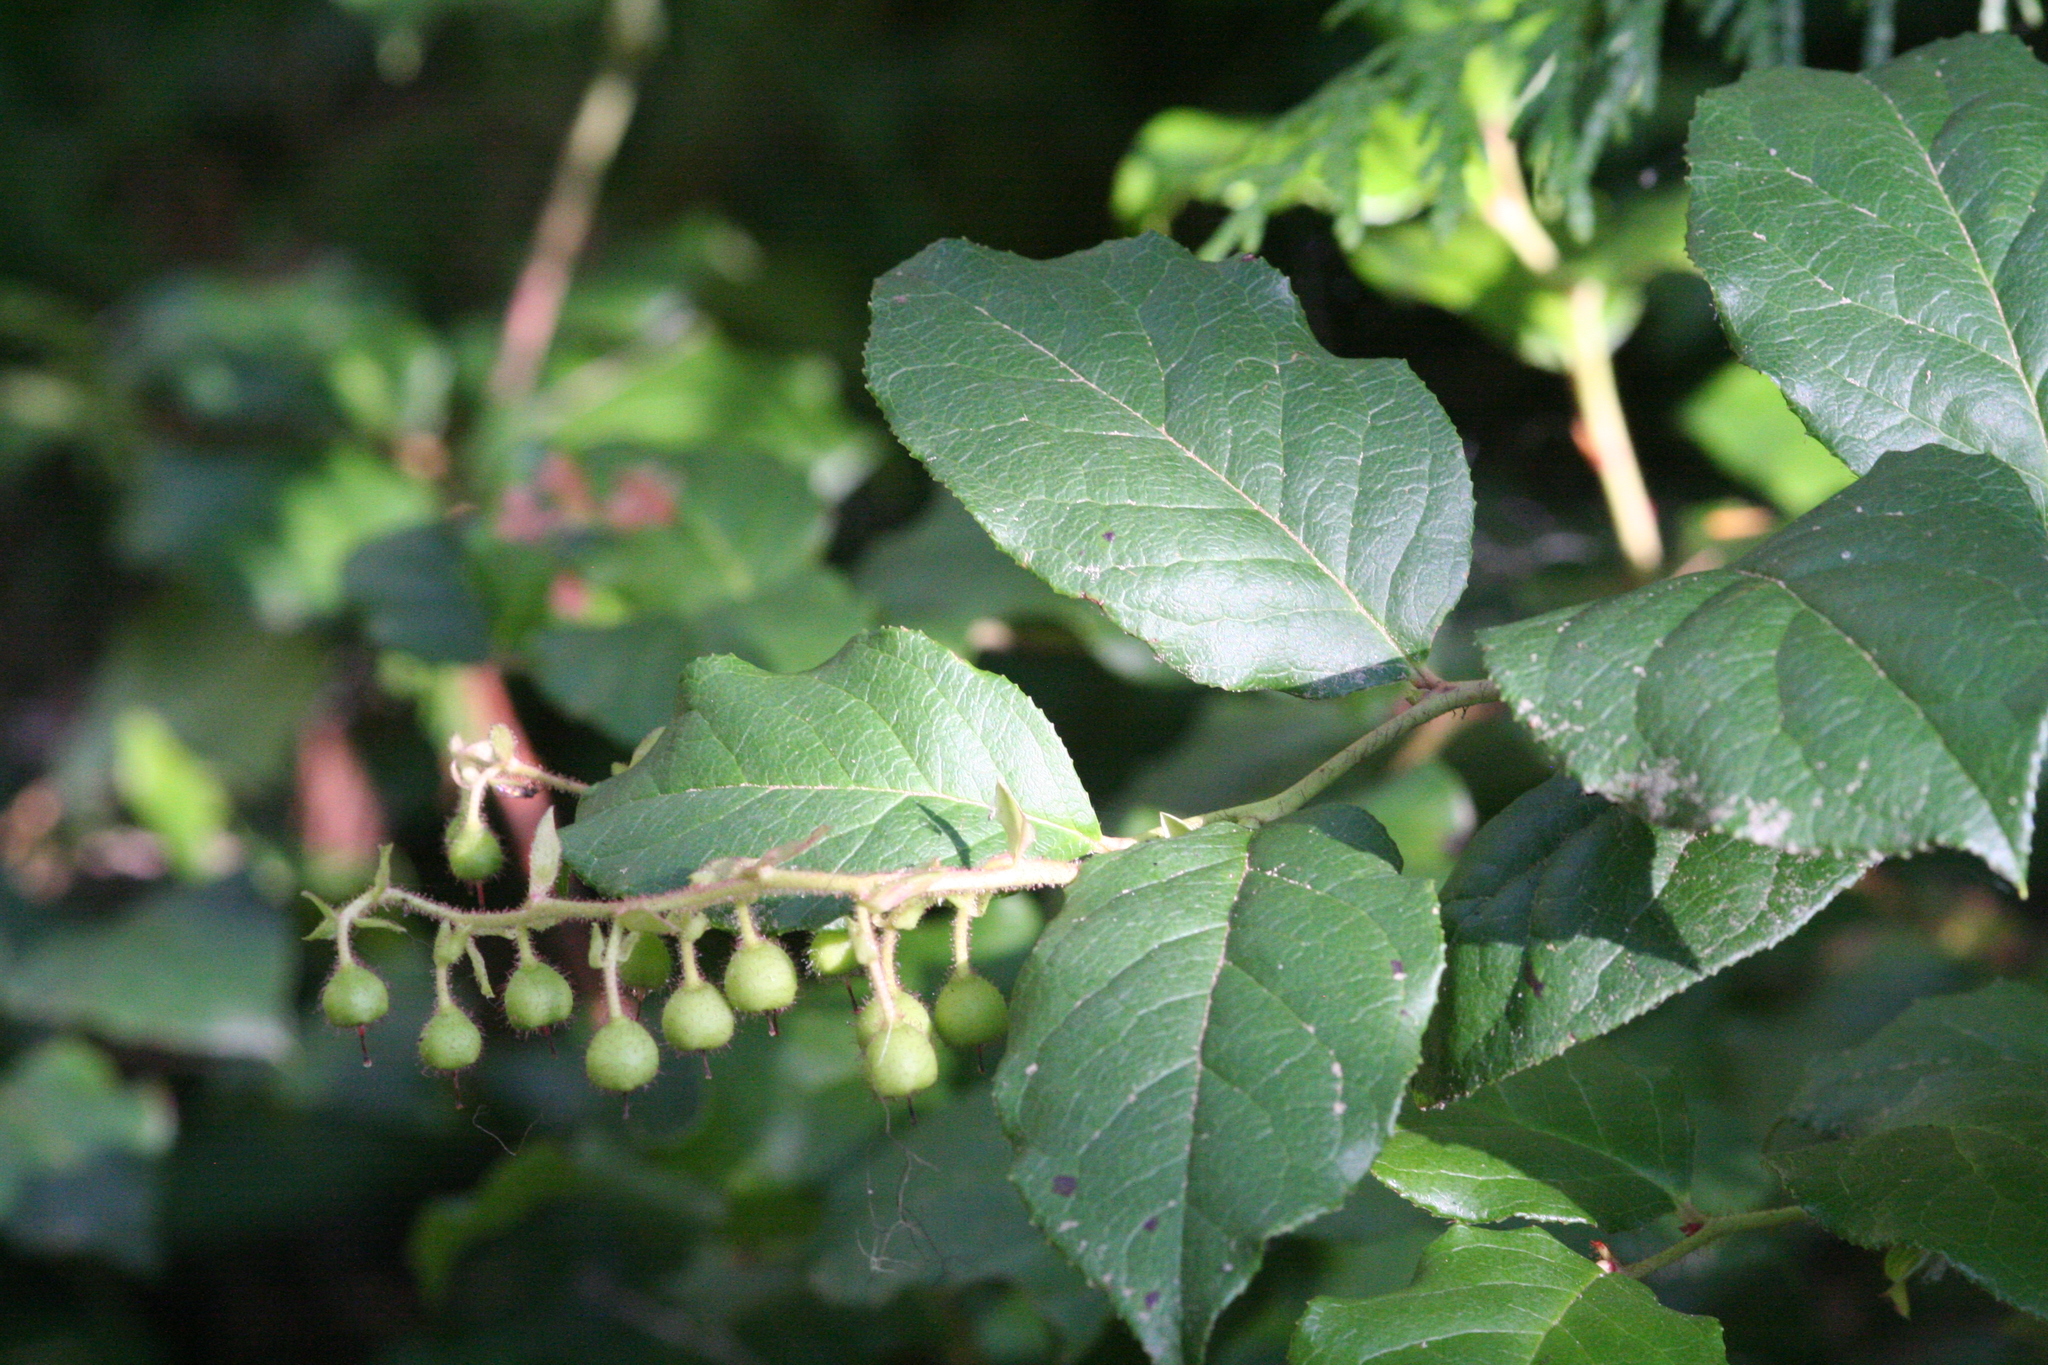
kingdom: Plantae
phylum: Tracheophyta
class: Magnoliopsida
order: Ericales
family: Ericaceae
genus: Gaultheria
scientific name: Gaultheria shallon
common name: Shallon
